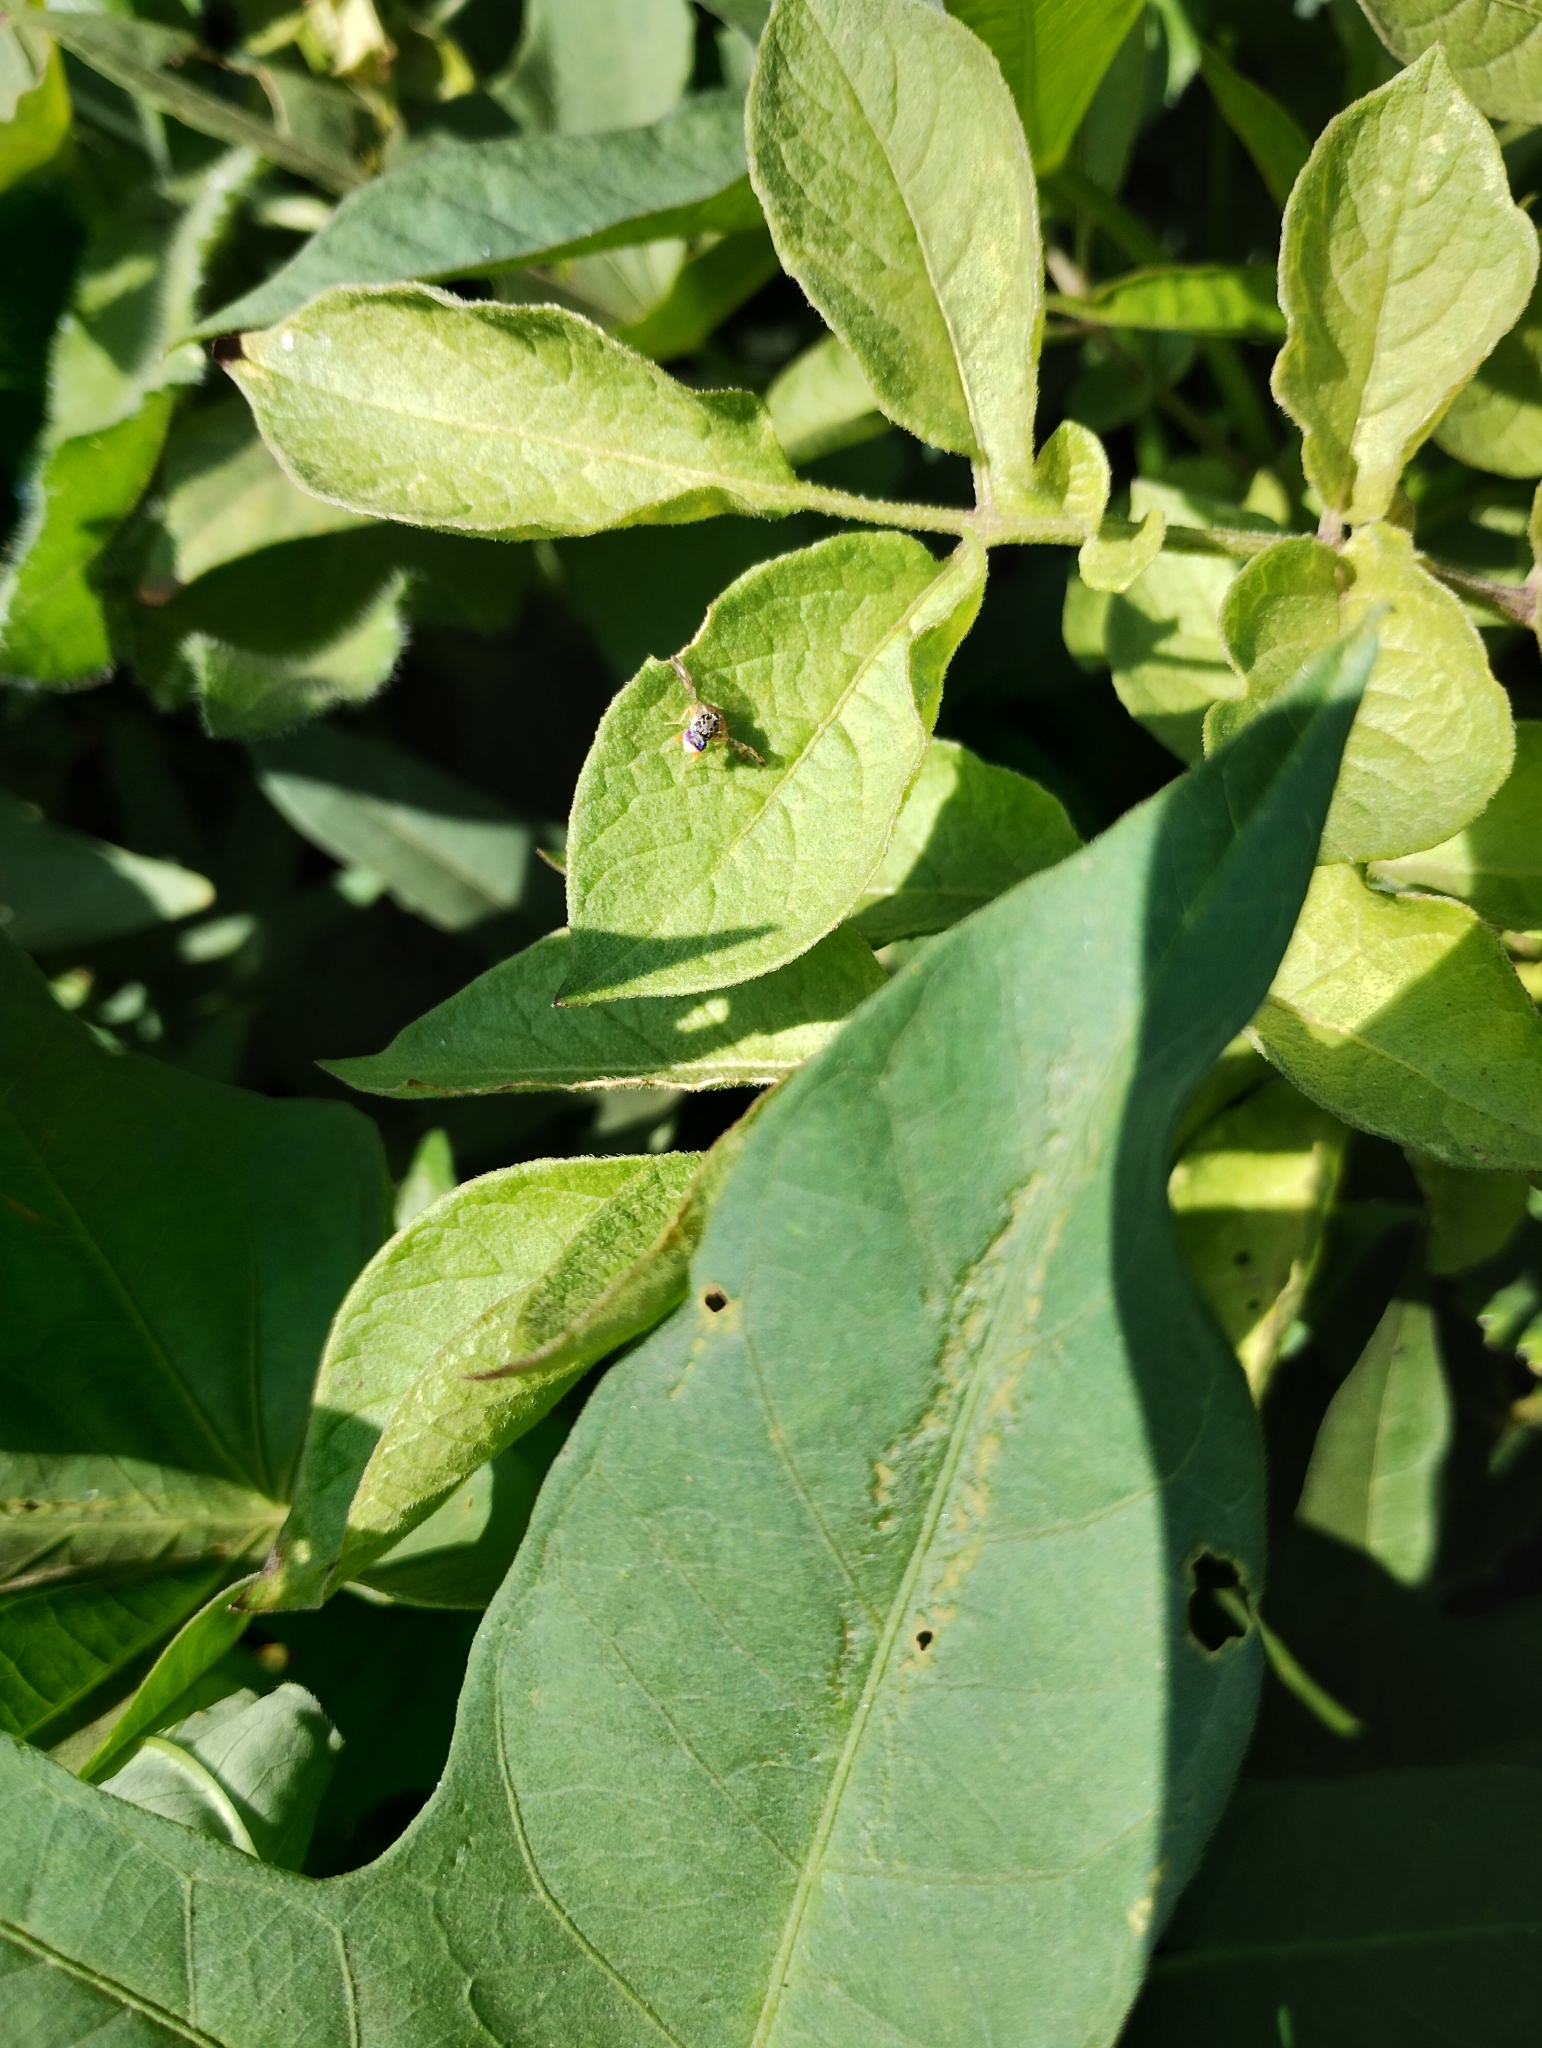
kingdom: Animalia
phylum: Arthropoda
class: Insecta
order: Diptera
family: Tephritidae
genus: Ceratitis
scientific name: Ceratitis capitata
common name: Mediterranean fruit fly
